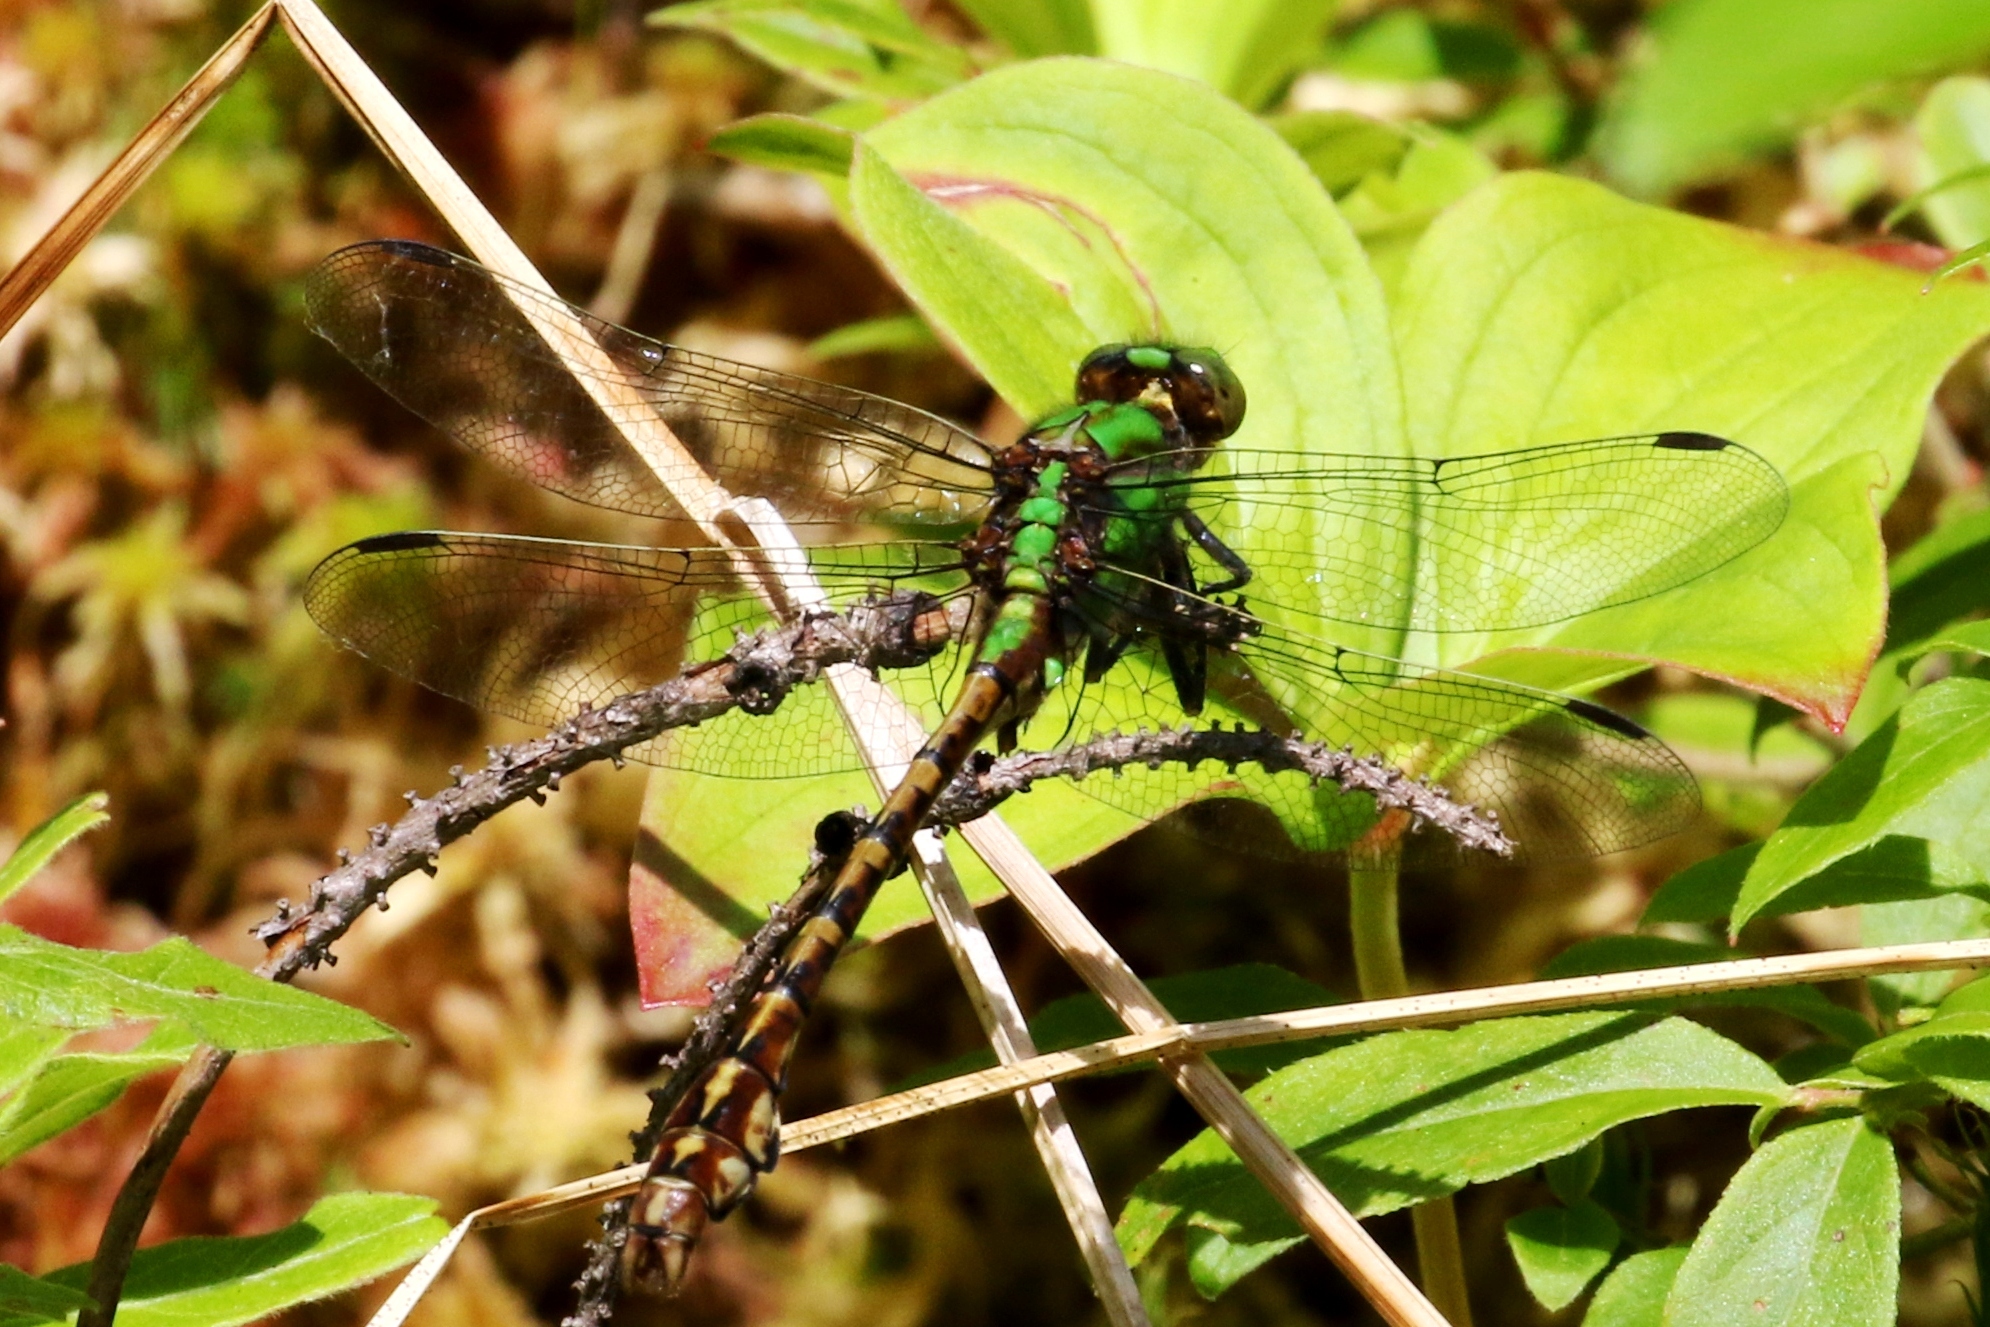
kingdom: Animalia
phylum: Arthropoda
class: Insecta
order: Odonata
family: Gomphidae
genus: Ophiogomphus
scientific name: Ophiogomphus rupinsulensis
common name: Rusty snaketail
